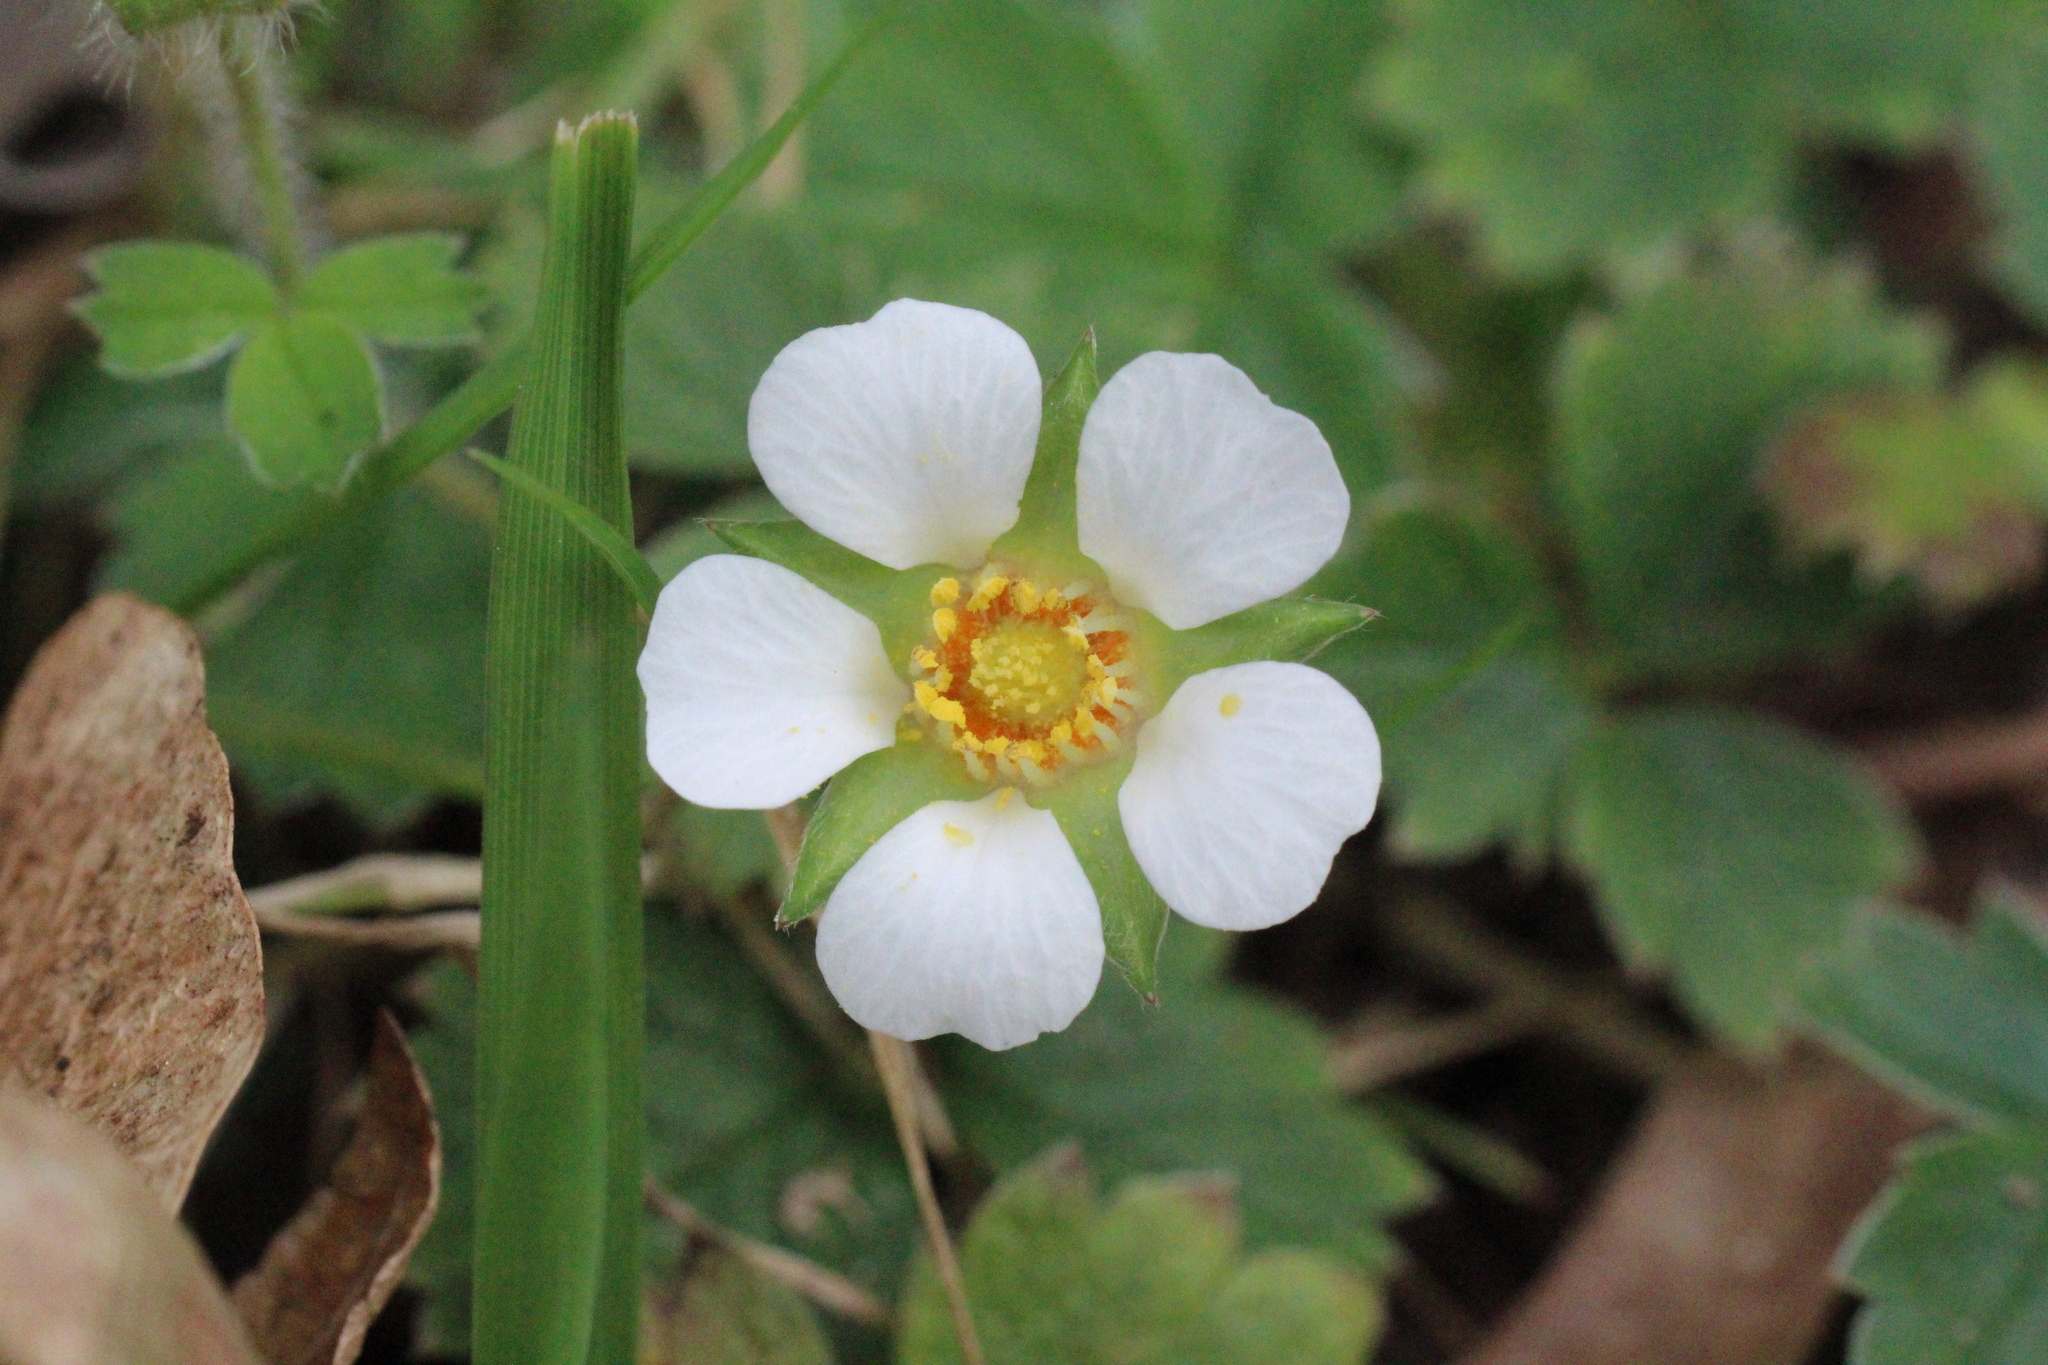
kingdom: Plantae
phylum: Tracheophyta
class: Magnoliopsida
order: Rosales
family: Rosaceae
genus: Potentilla
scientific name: Potentilla sterilis
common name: Barren strawberry
